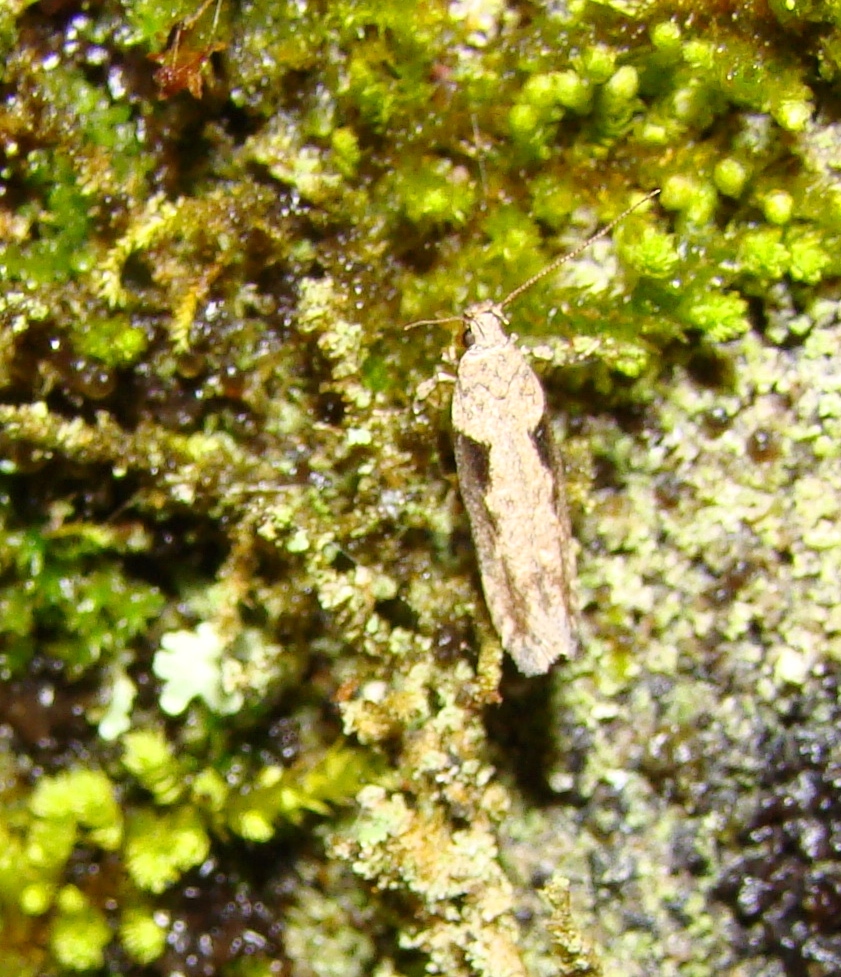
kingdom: Animalia
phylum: Arthropoda
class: Insecta
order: Lepidoptera
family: Gelechiidae
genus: Symmetrischema
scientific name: Symmetrischema tangolias
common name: Moth
